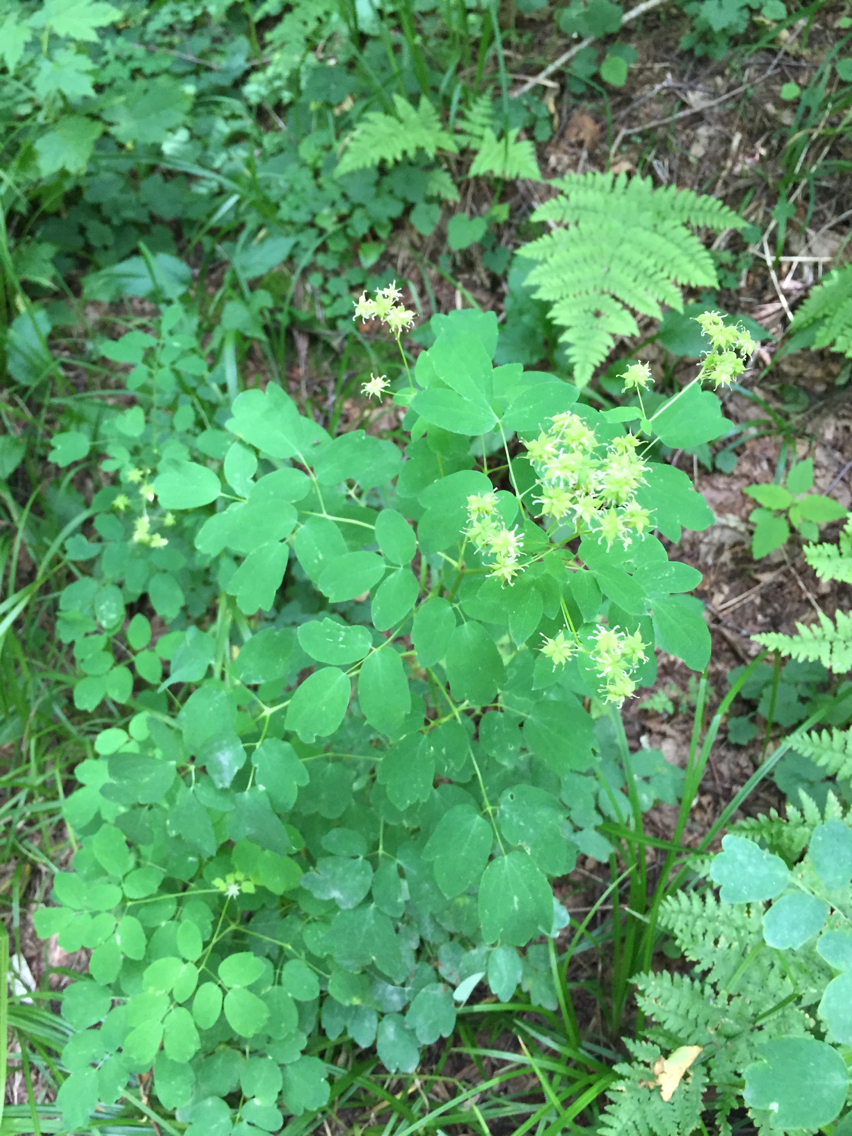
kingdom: Plantae
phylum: Tracheophyta
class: Magnoliopsida
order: Ranunculales
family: Ranunculaceae
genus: Thalictrum
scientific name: Thalictrum pubescens
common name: King-of-the-meadow
